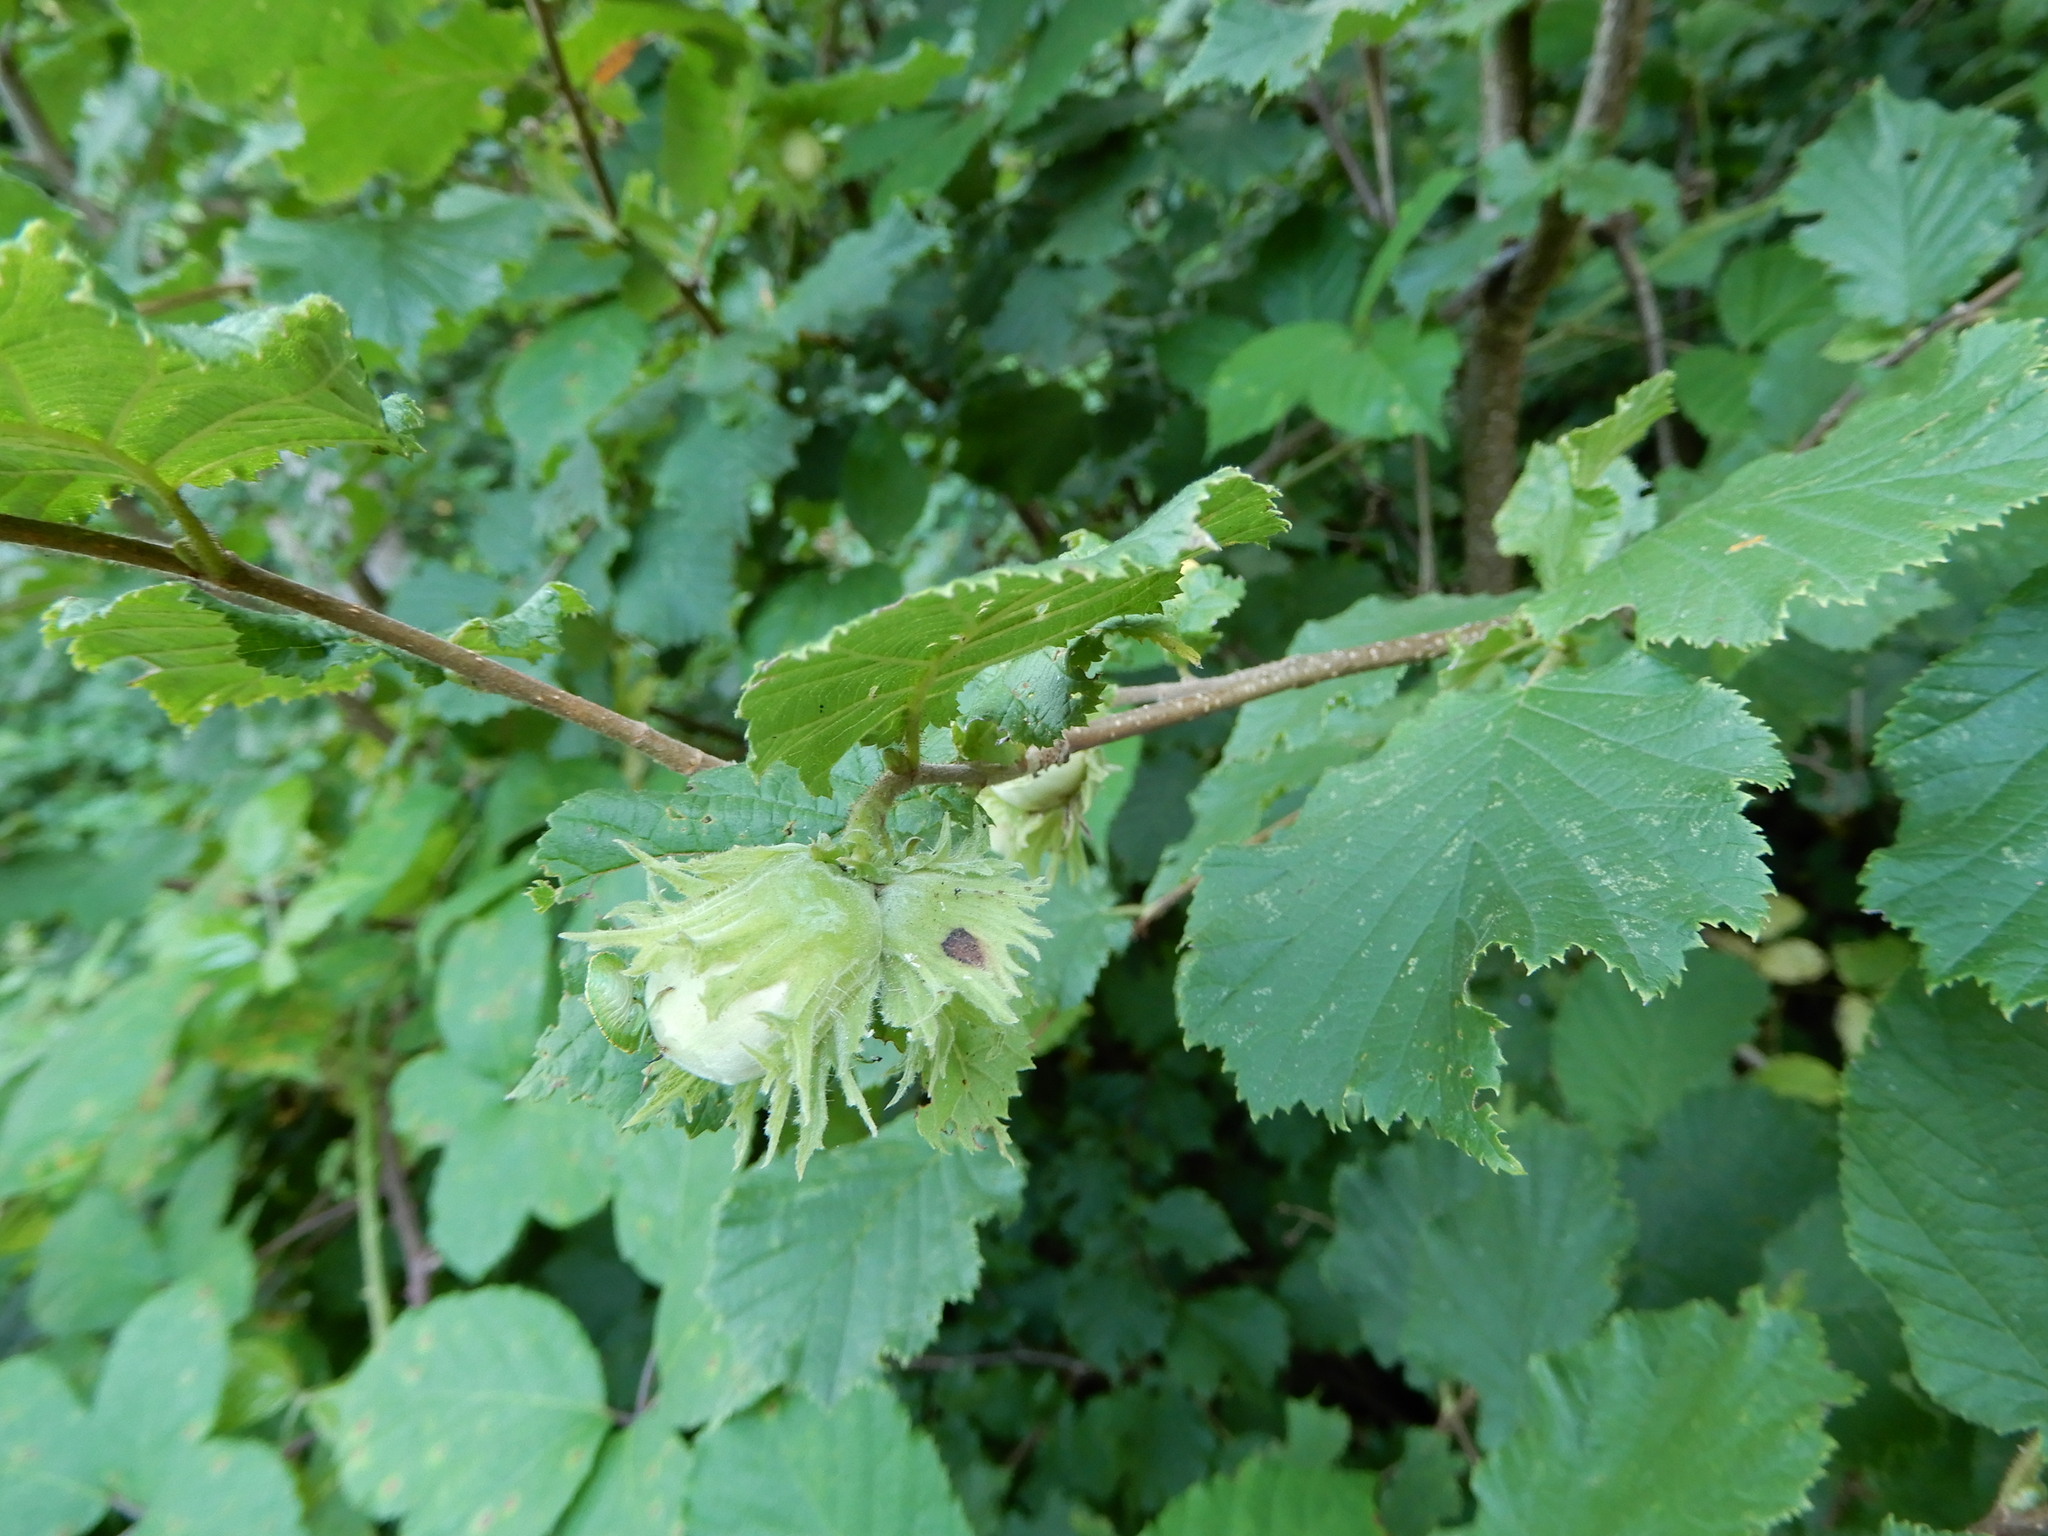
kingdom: Plantae
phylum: Tracheophyta
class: Magnoliopsida
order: Fagales
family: Betulaceae
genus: Corylus
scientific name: Corylus avellana
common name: European hazel
